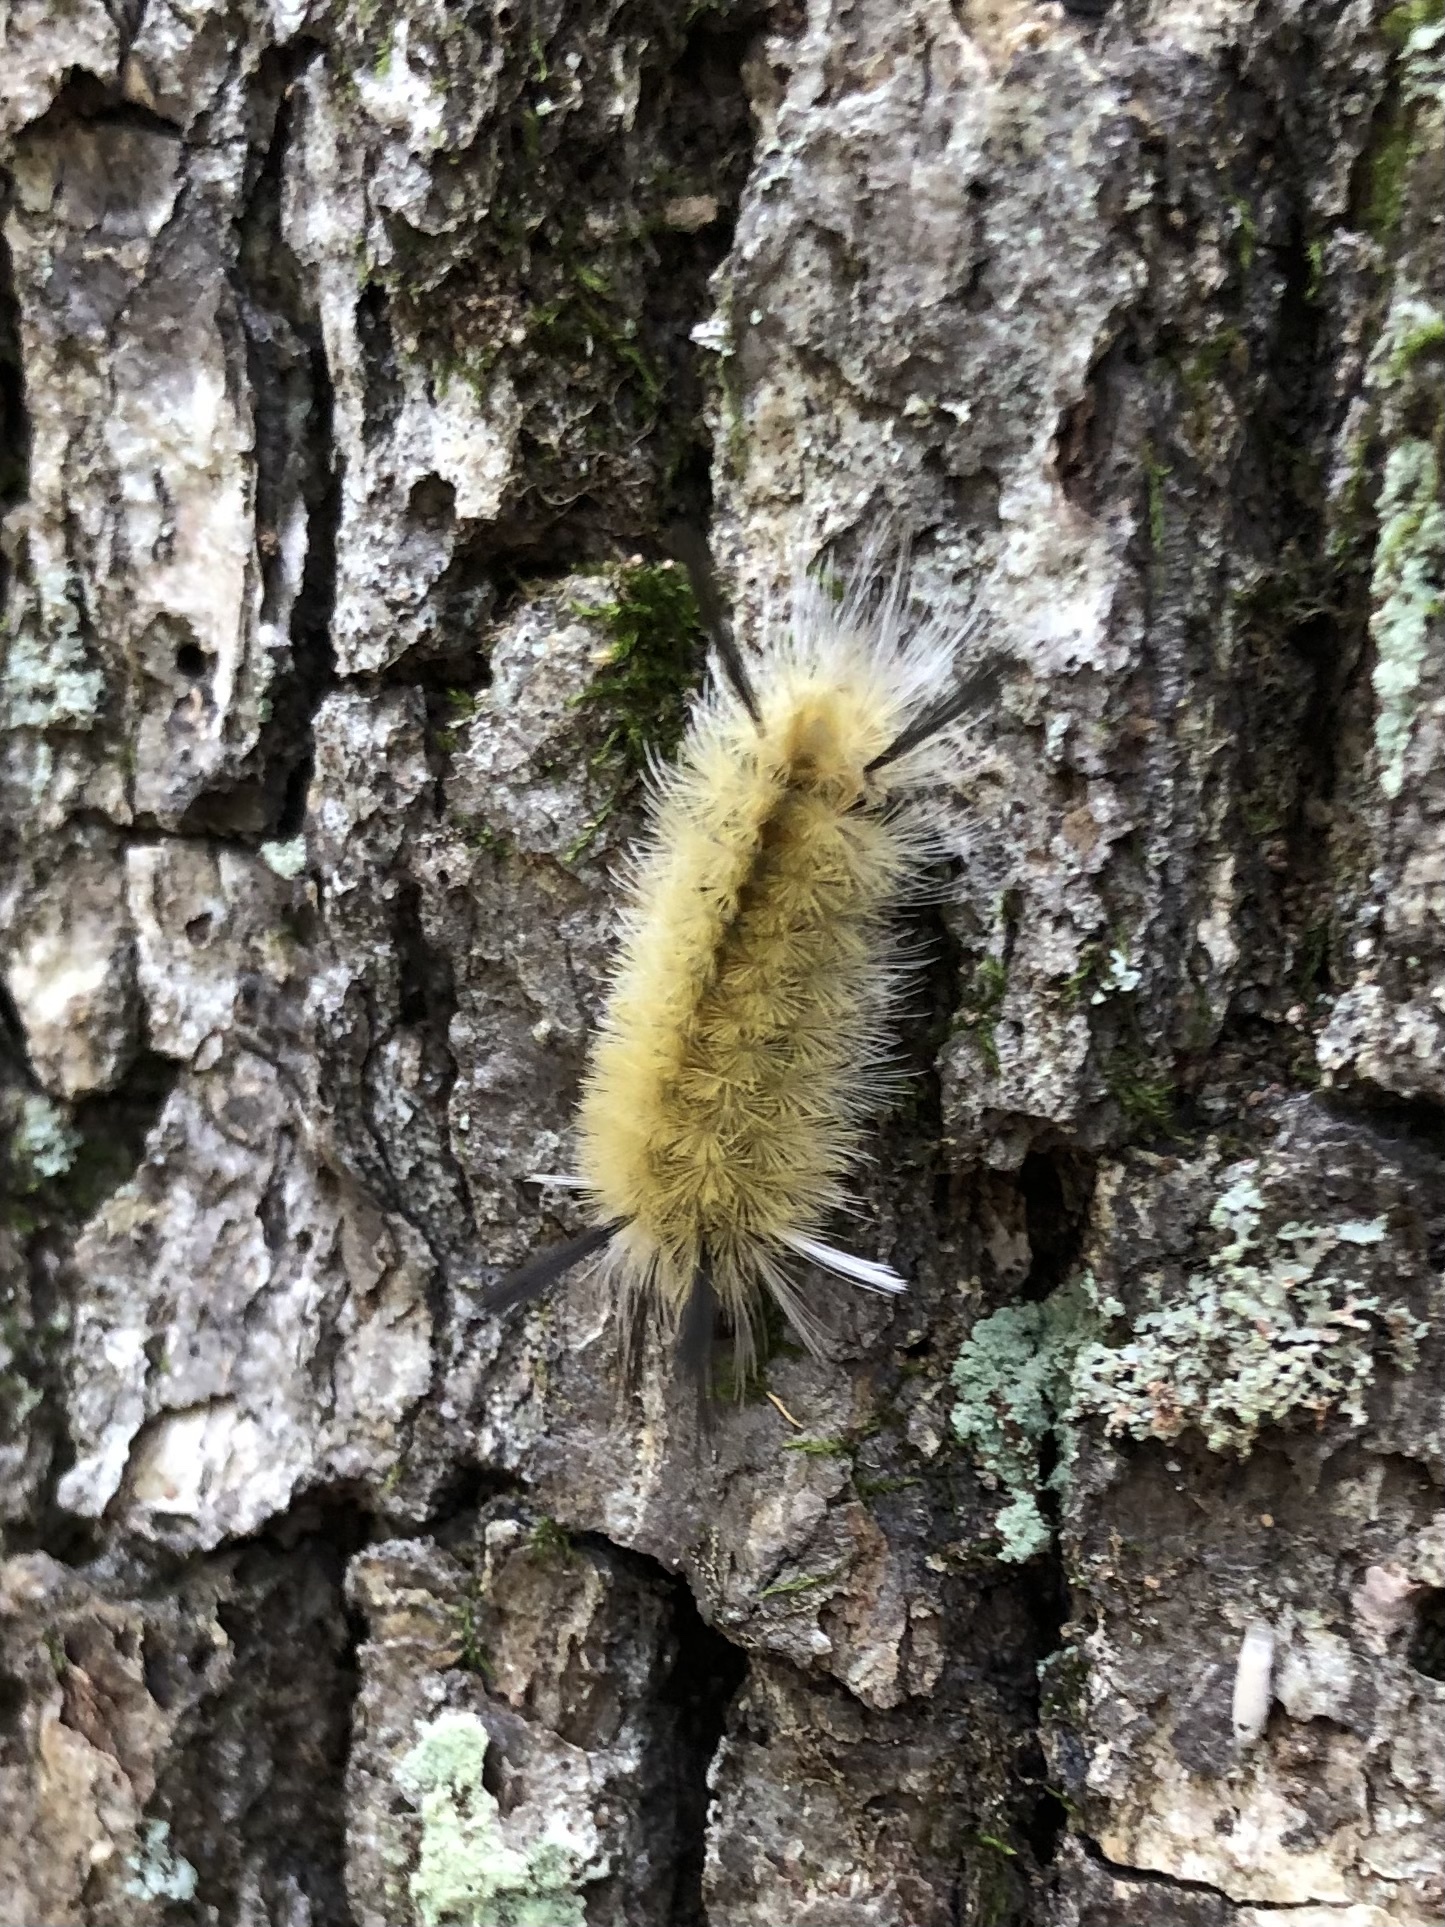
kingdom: Animalia
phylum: Arthropoda
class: Insecta
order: Lepidoptera
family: Erebidae
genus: Halysidota
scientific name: Halysidota tessellaris
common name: Banded tussock moth
